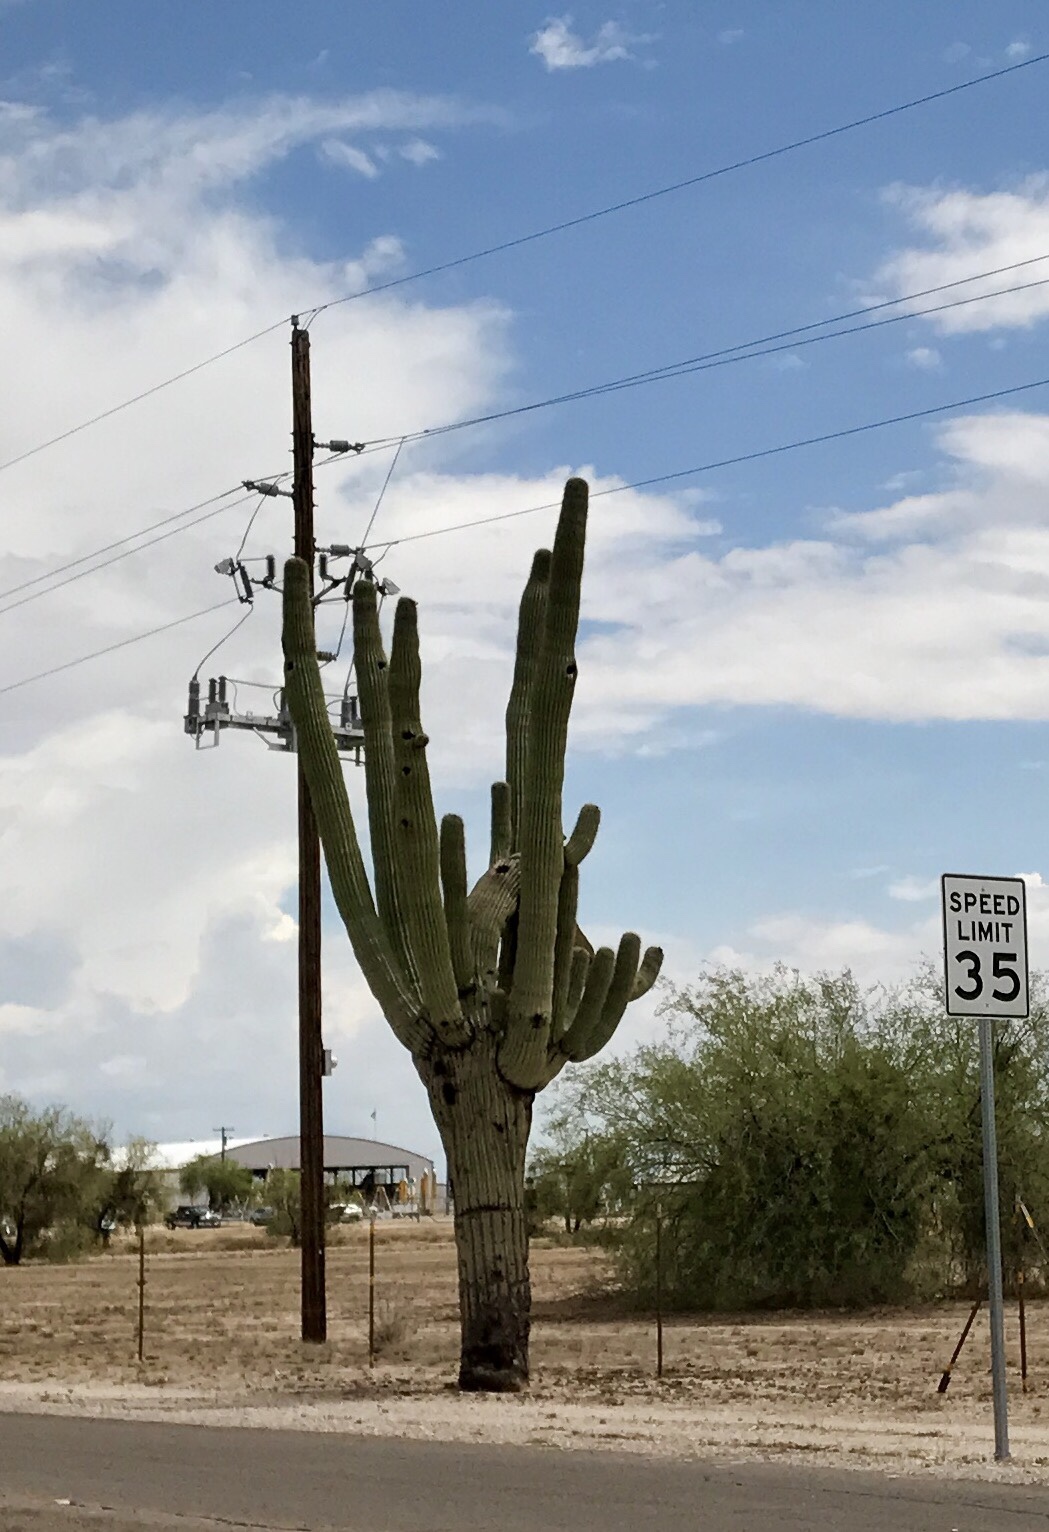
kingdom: Plantae
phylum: Tracheophyta
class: Magnoliopsida
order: Caryophyllales
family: Cactaceae
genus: Carnegiea
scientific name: Carnegiea gigantea
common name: Saguaro
